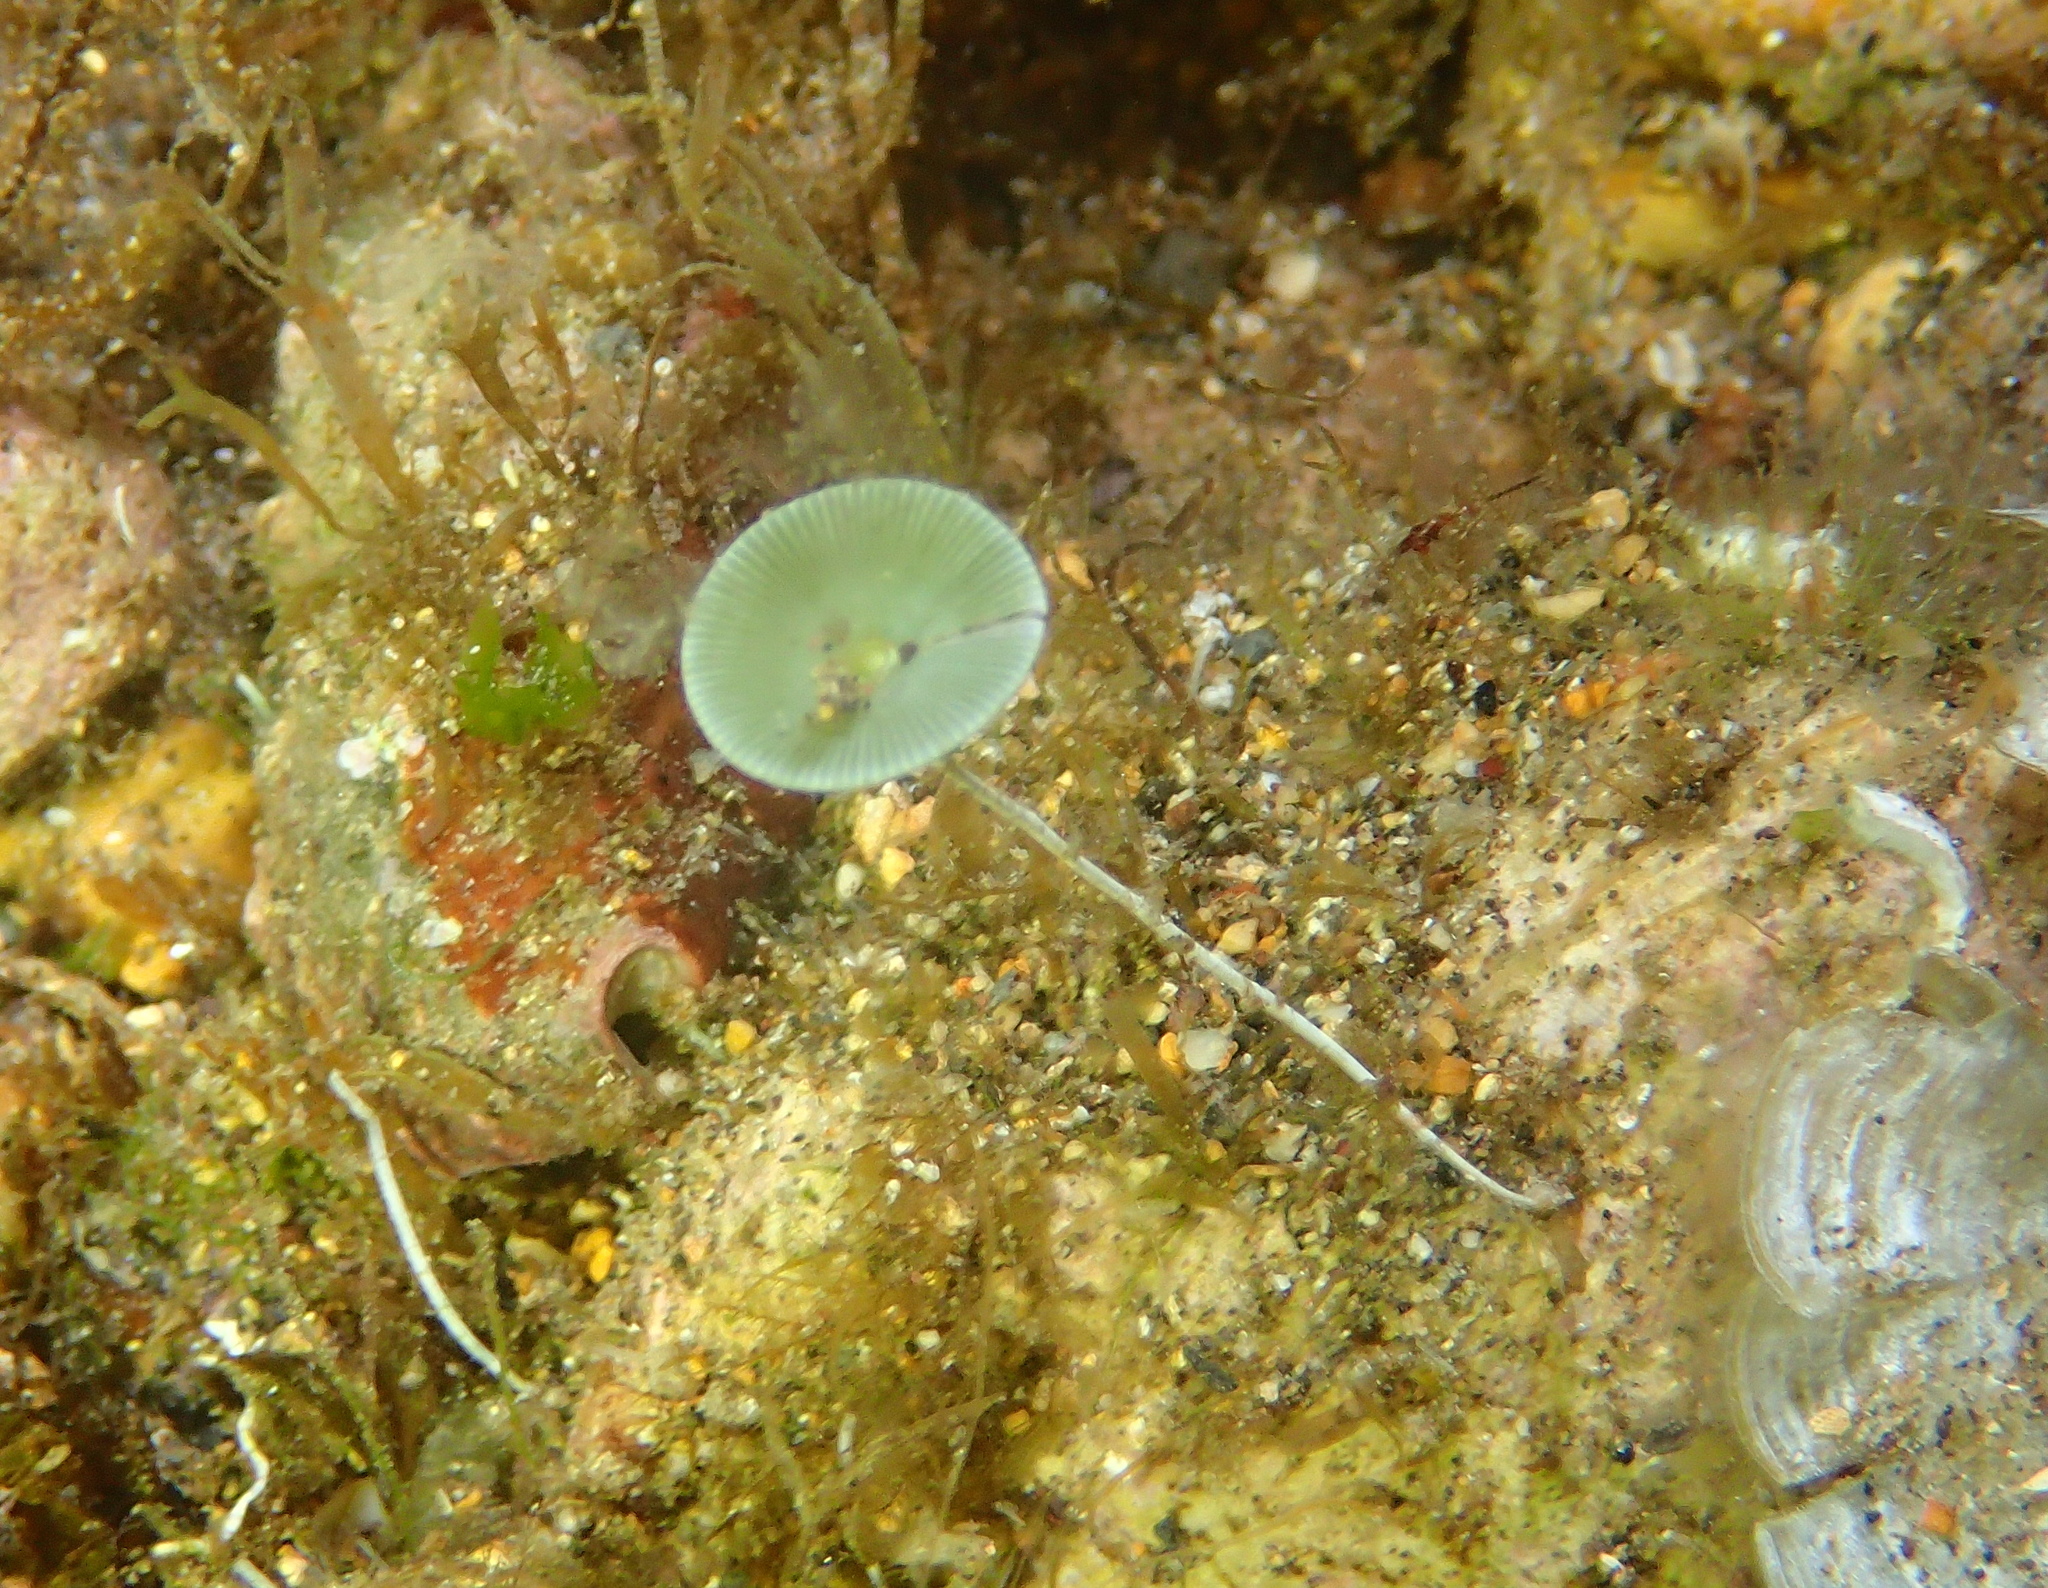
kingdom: Plantae
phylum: Chlorophyta
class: Ulvophyceae
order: Dasycladales
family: Polyphysaceae
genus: Acetabularia
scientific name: Acetabularia acetabulum
